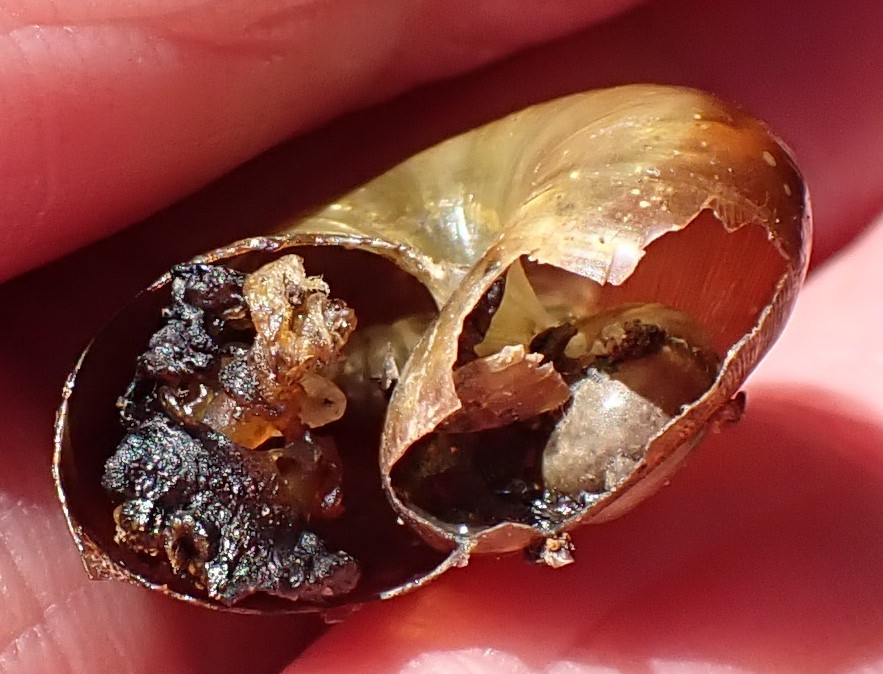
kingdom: Animalia
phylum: Mollusca
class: Gastropoda
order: Stylommatophora
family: Rhytididae
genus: Victaphanta
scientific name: Victaphanta lampra
